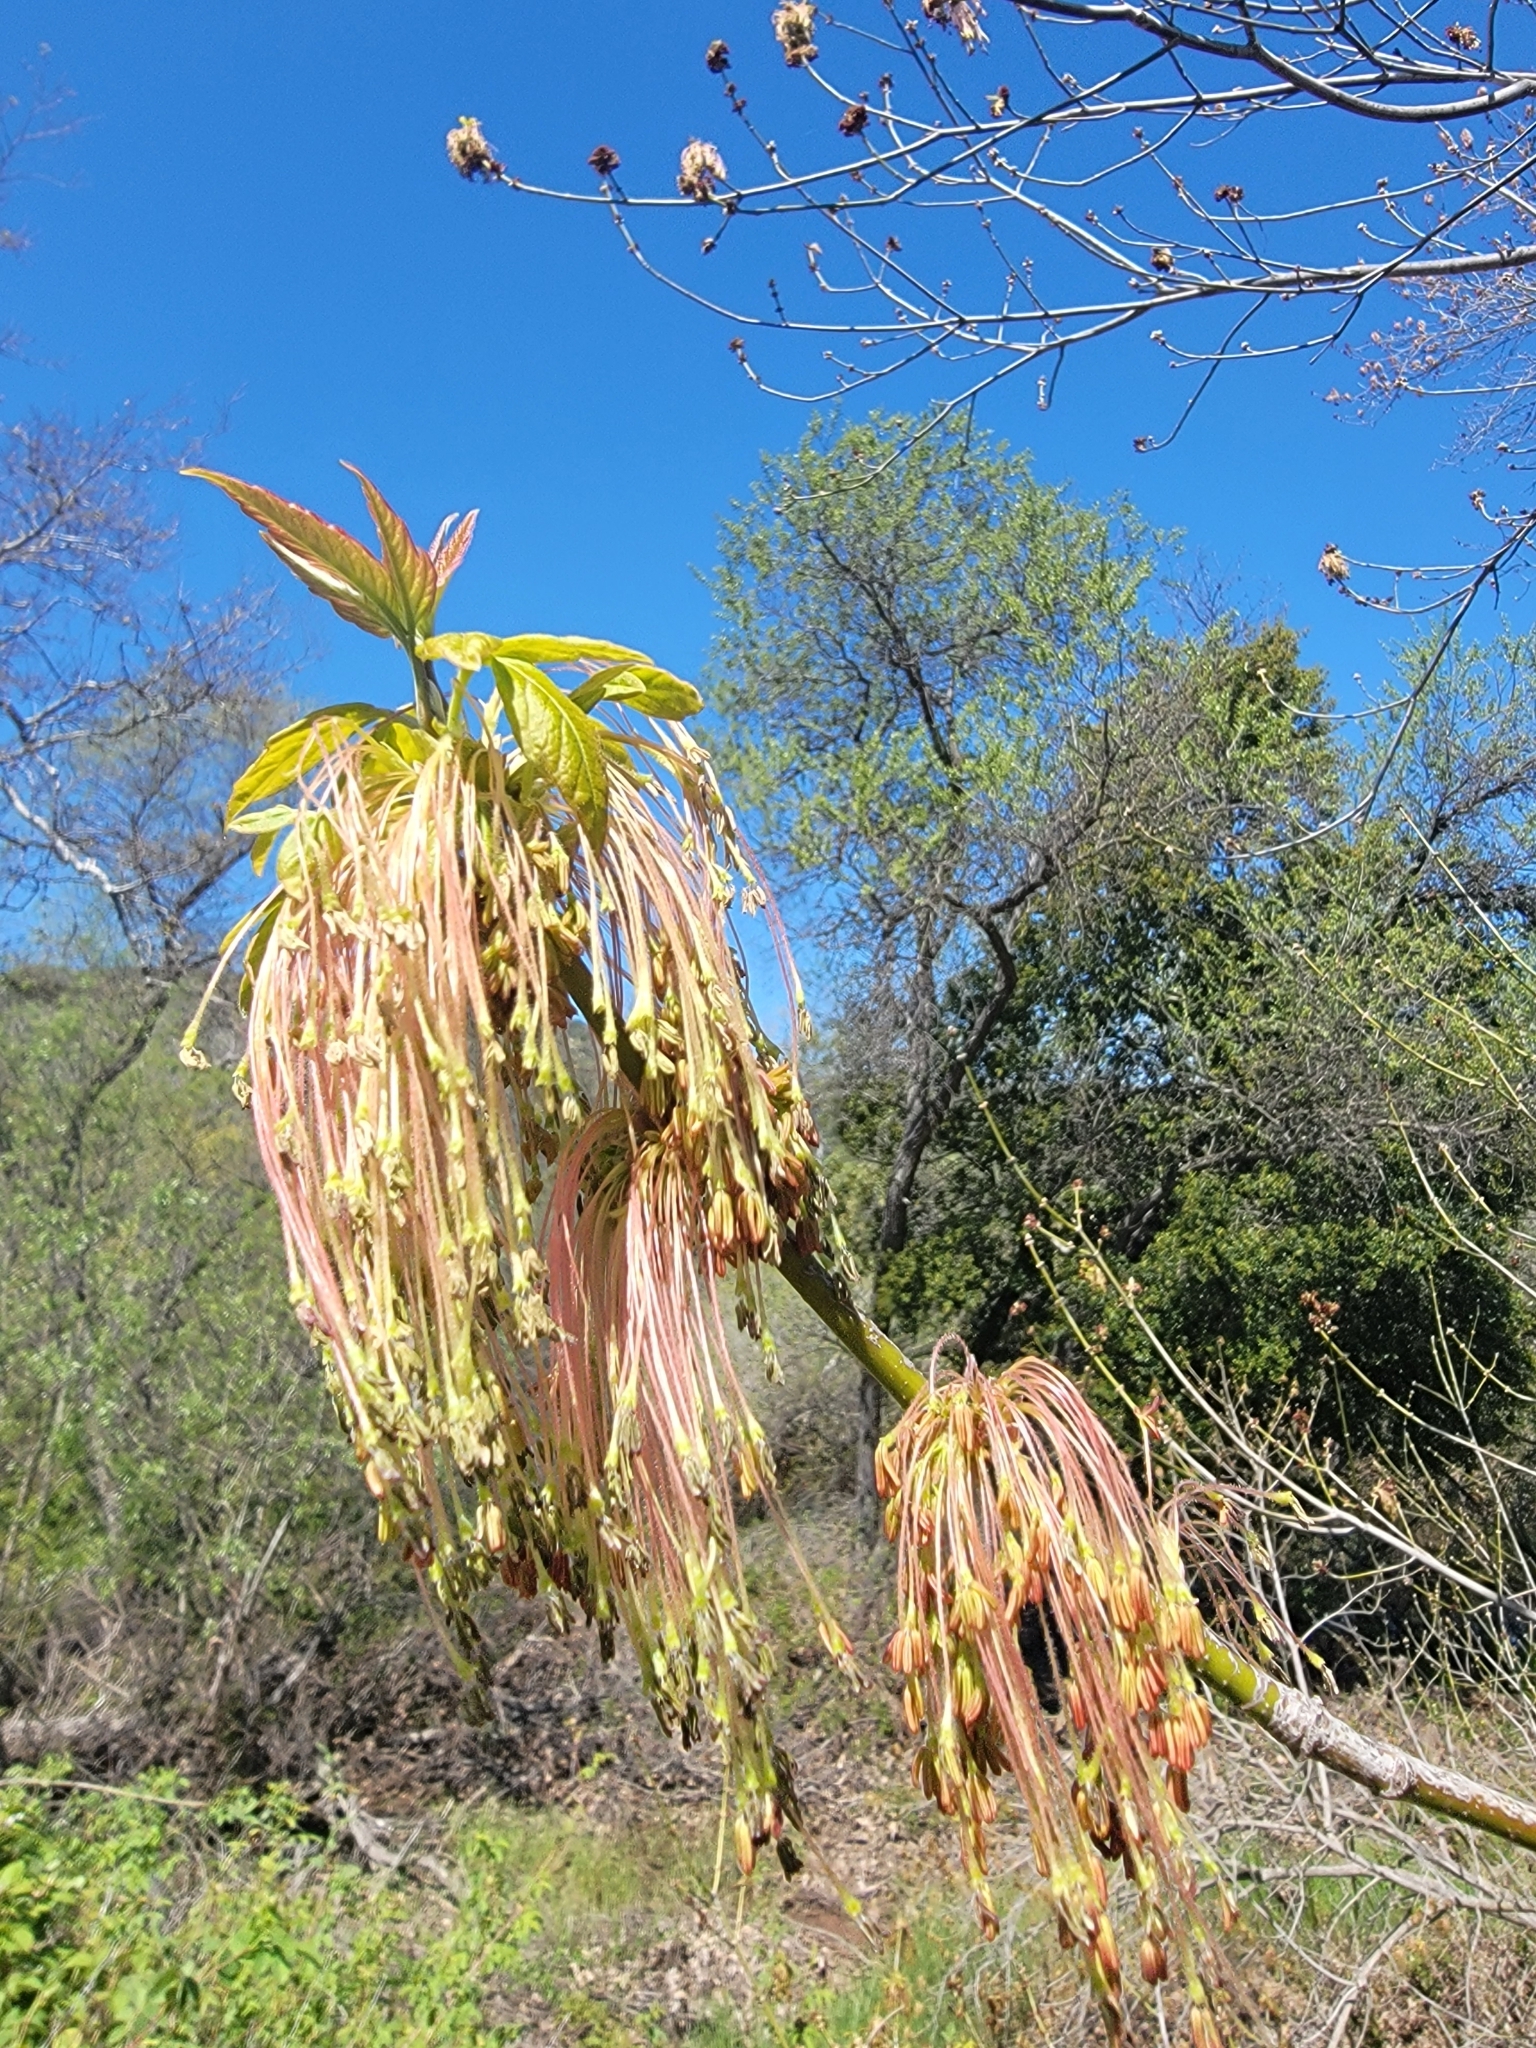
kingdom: Plantae
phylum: Tracheophyta
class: Magnoliopsida
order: Sapindales
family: Sapindaceae
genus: Acer
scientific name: Acer negundo
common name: Ashleaf maple
